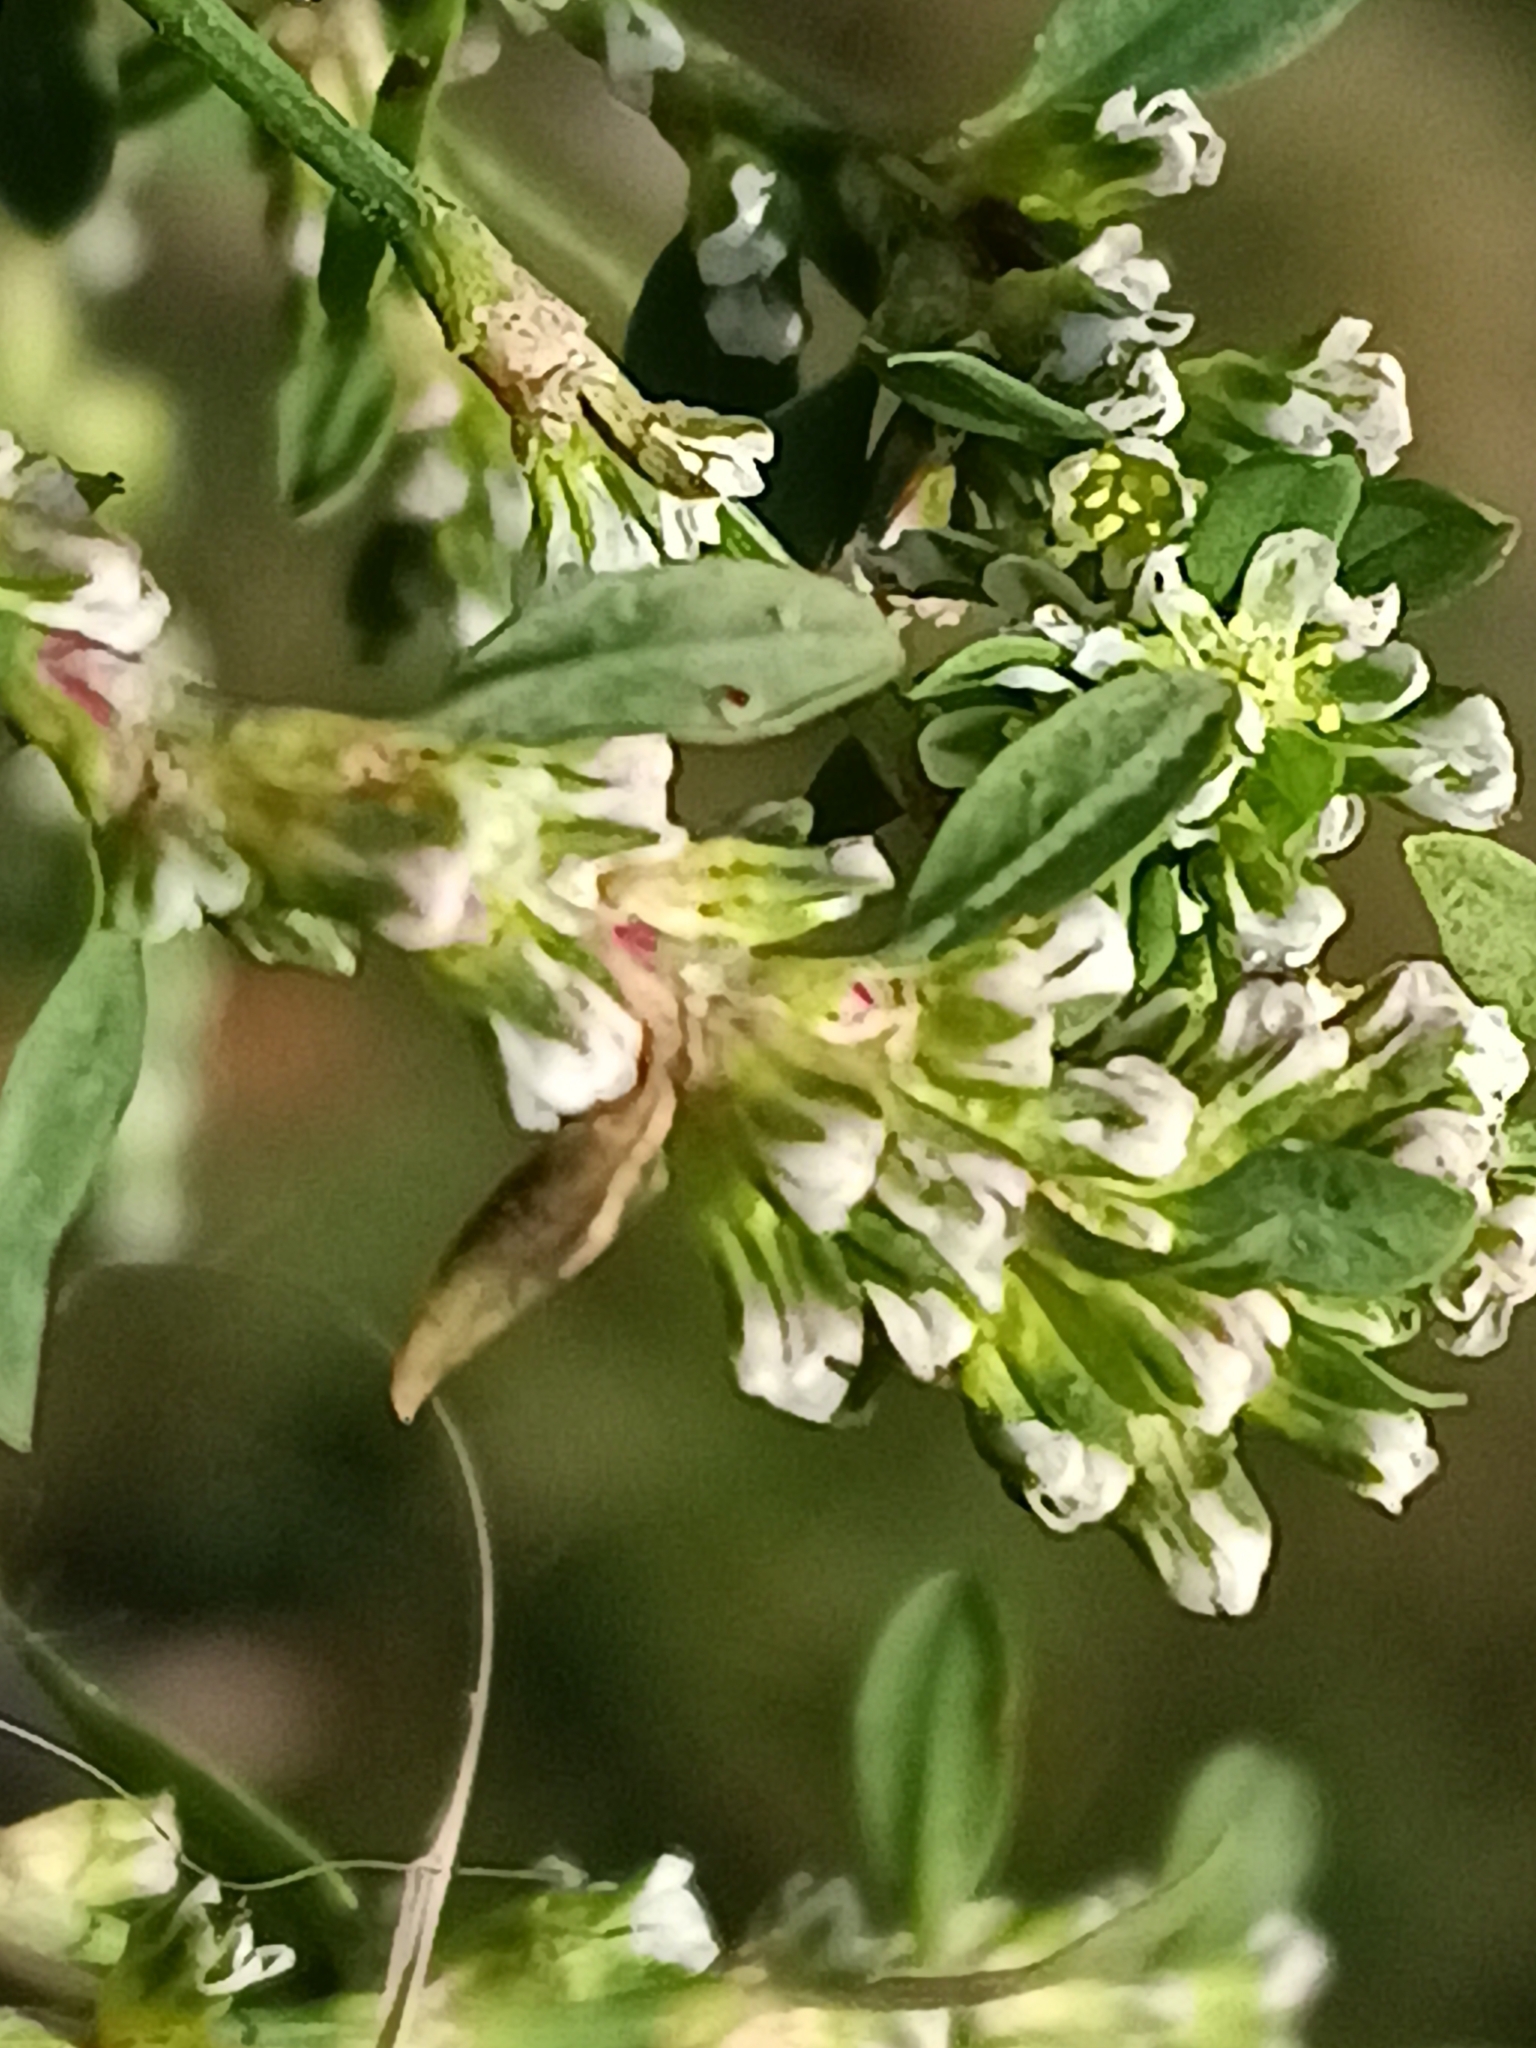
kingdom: Plantae
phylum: Tracheophyta
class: Magnoliopsida
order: Caryophyllales
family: Polygonaceae
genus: Polygonum
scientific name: Polygonum
